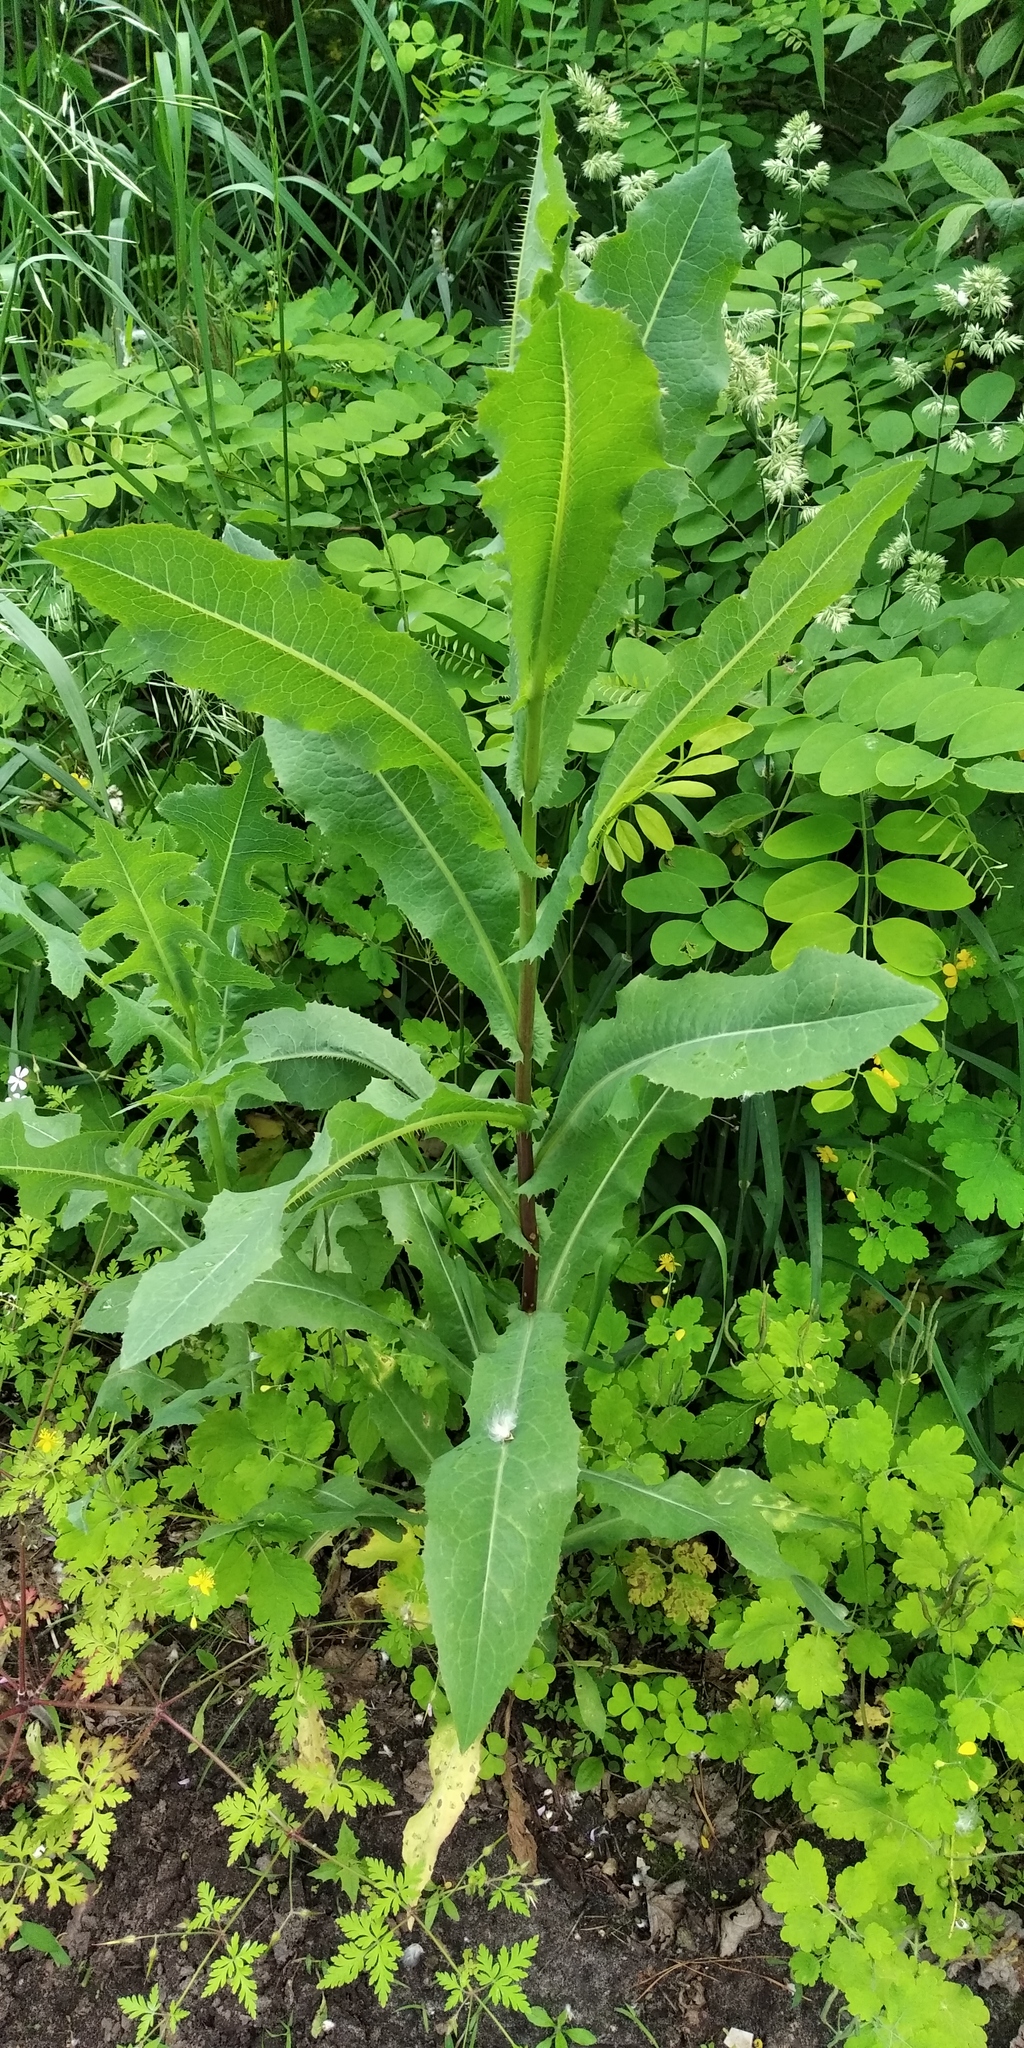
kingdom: Plantae
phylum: Tracheophyta
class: Magnoliopsida
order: Asterales
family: Asteraceae
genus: Lactuca
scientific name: Lactuca serriola
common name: Prickly lettuce
